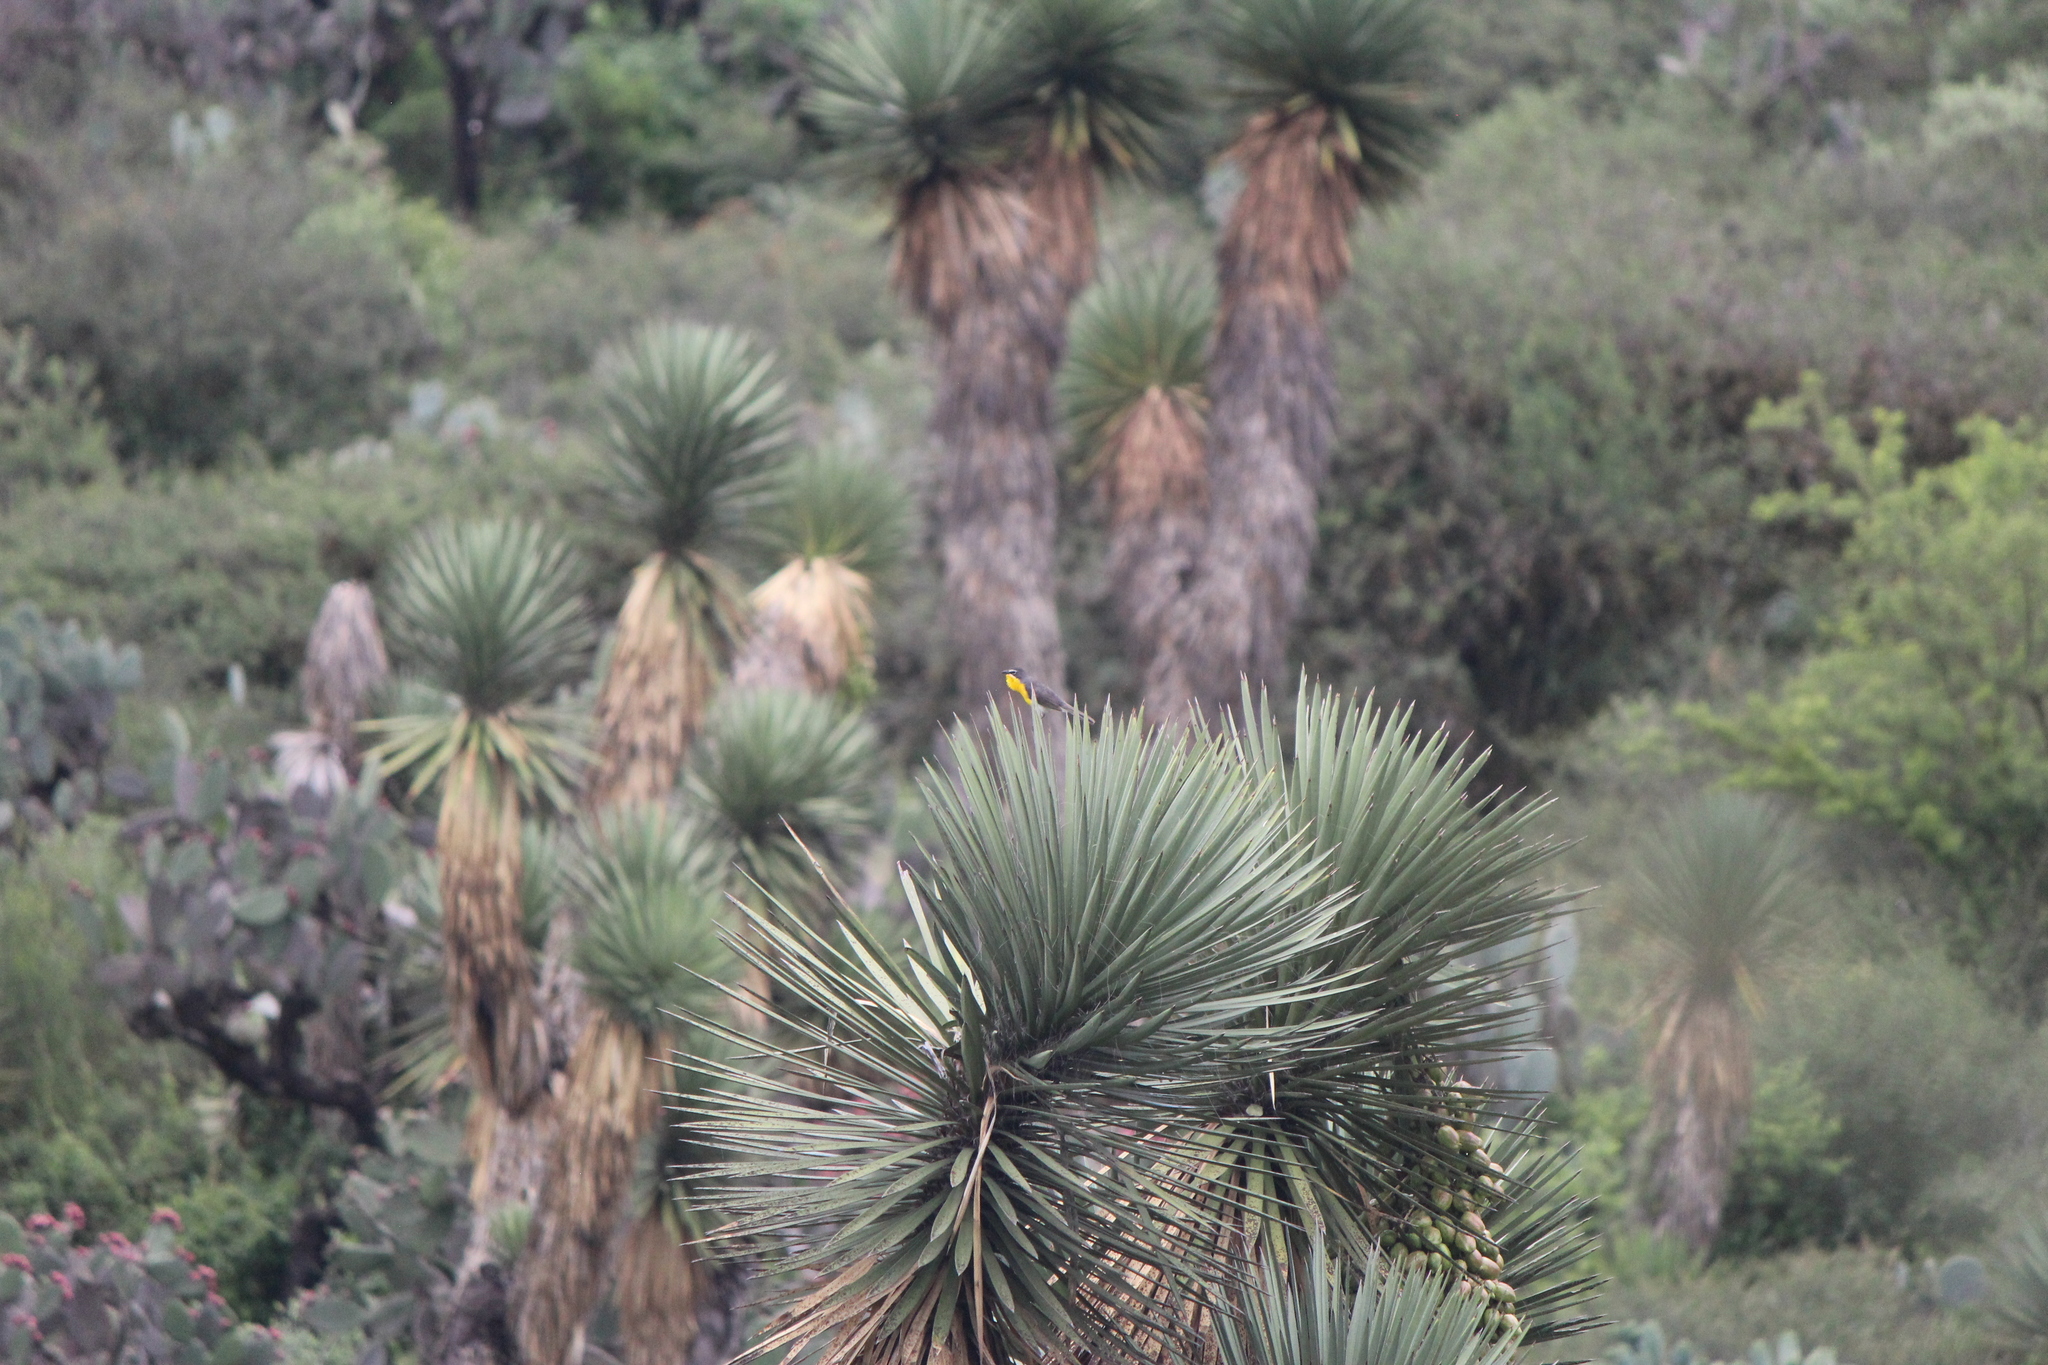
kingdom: Animalia
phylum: Chordata
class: Aves
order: Passeriformes
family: Parulidae
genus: Icteria
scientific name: Icteria virens
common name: Yellow-breasted chat
